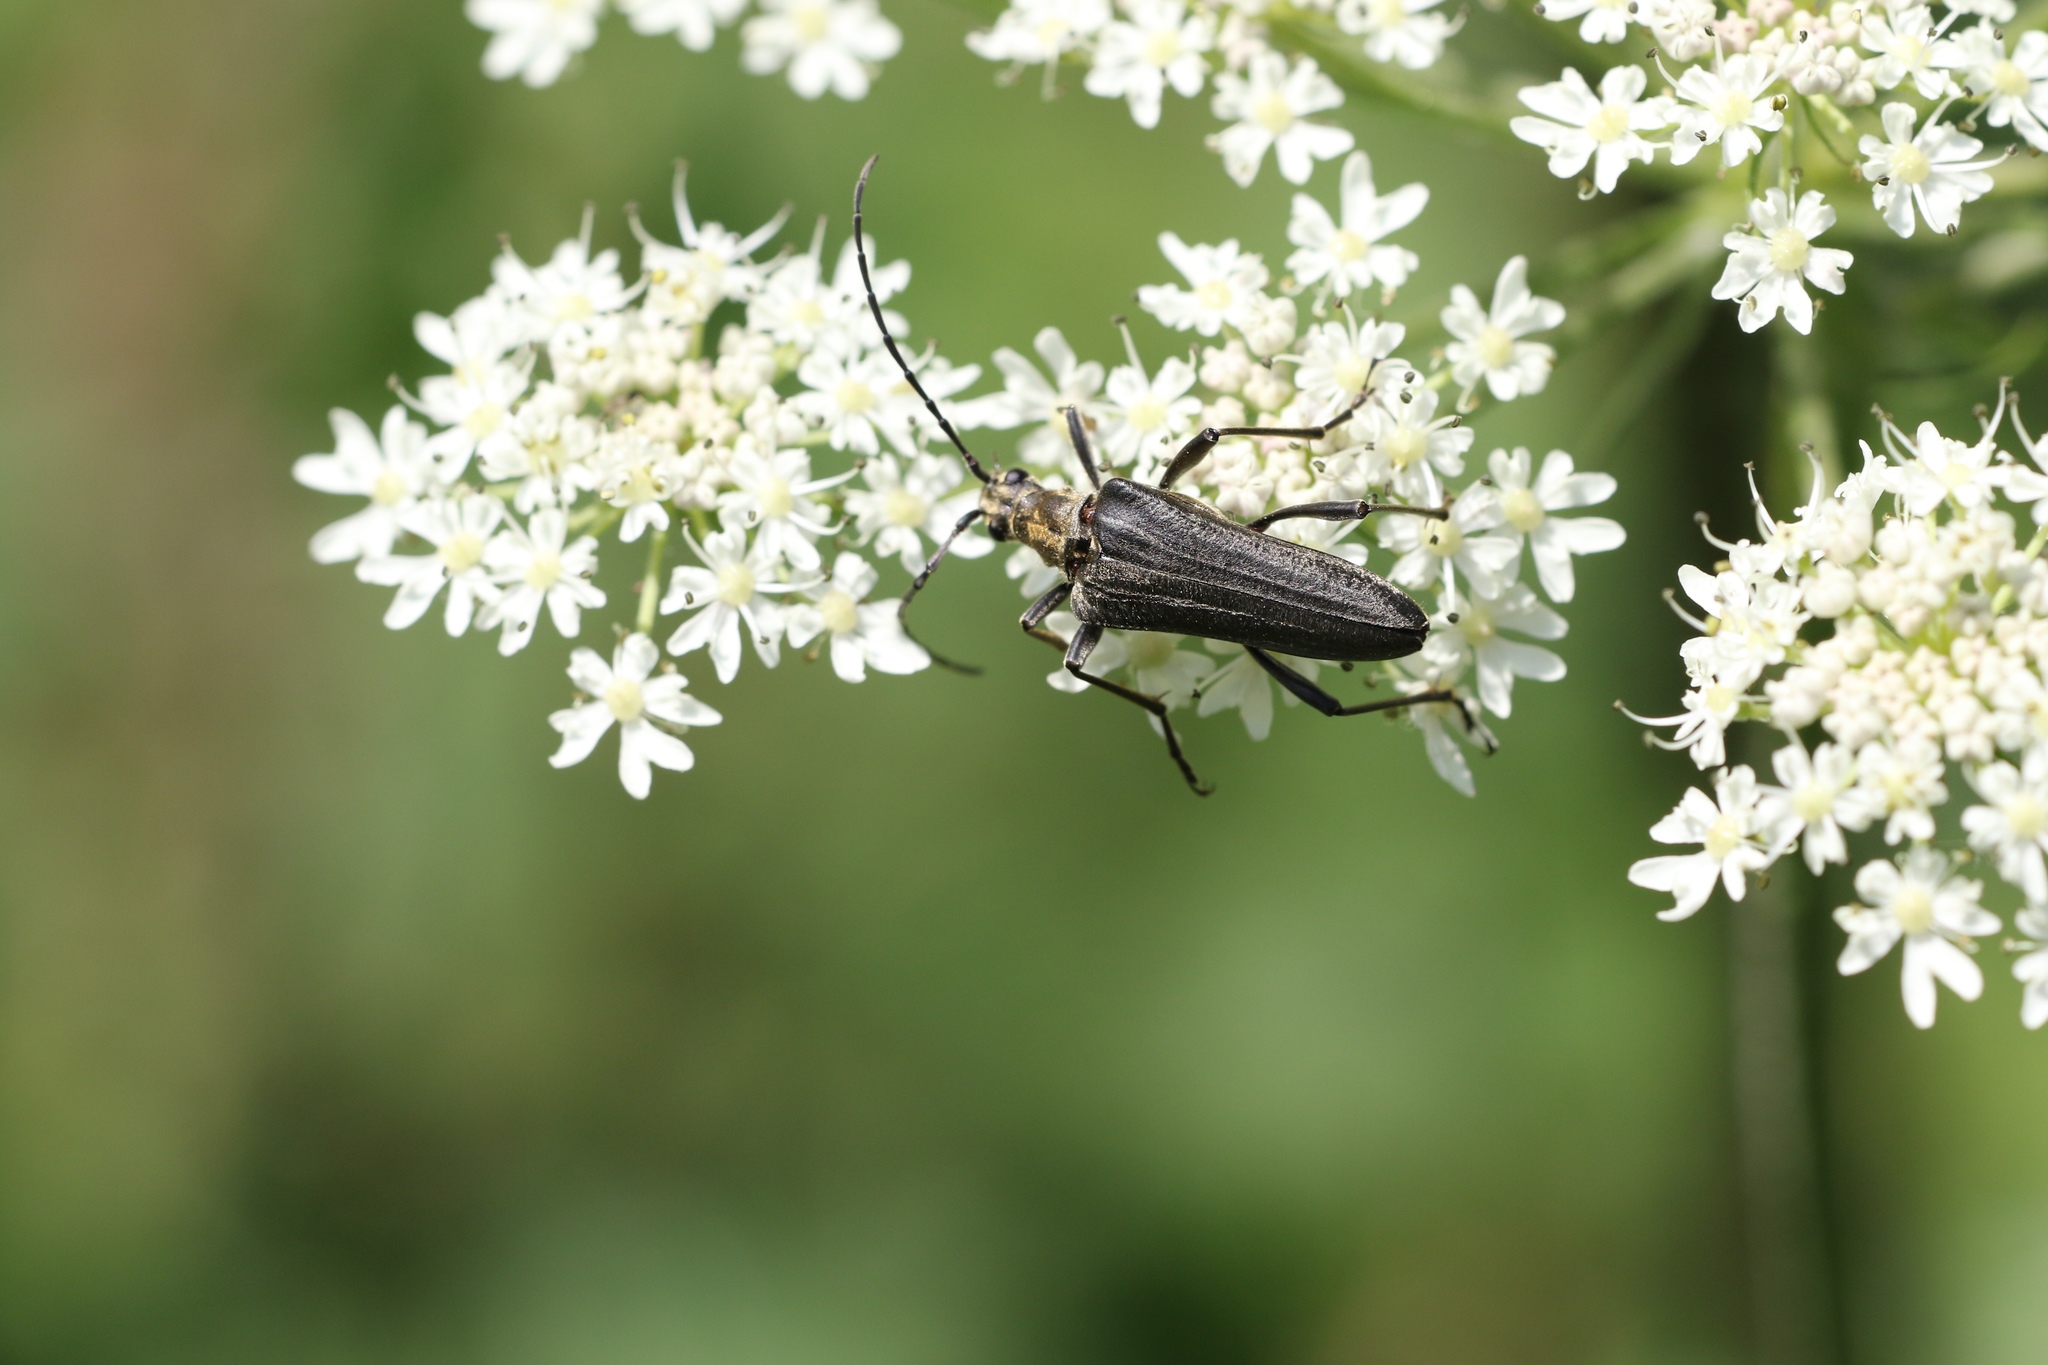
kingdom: Animalia
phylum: Arthropoda
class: Insecta
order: Coleoptera
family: Cerambycidae
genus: Stenocorus
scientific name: Stenocorus meridianus
